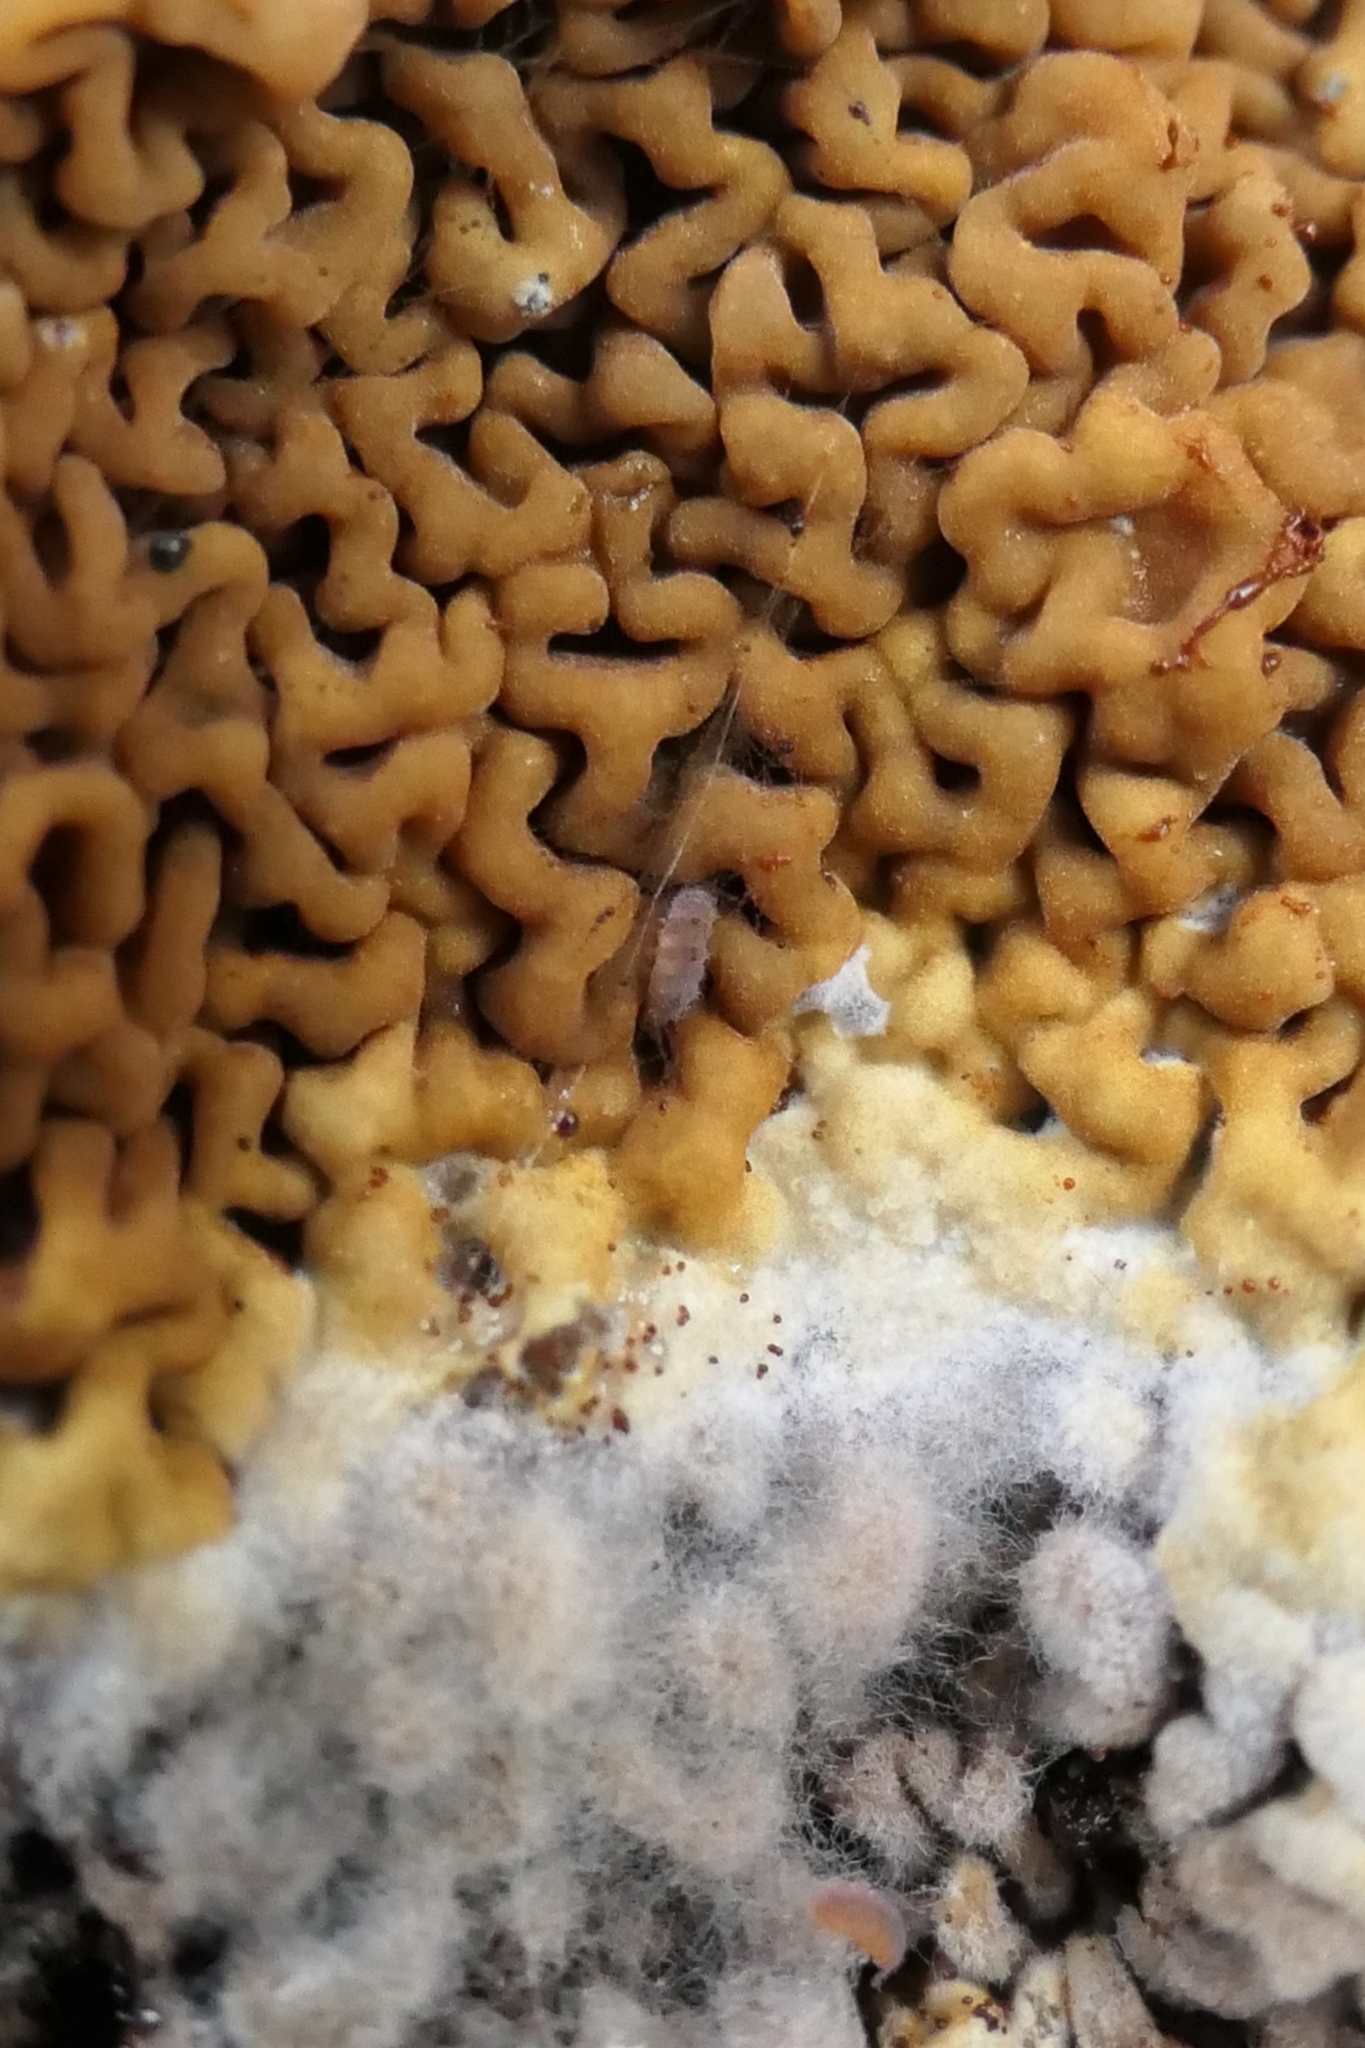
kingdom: Fungi
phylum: Basidiomycota
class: Agaricomycetes
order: Boletales
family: Serpulaceae
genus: Serpula
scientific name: Serpula himantioides
